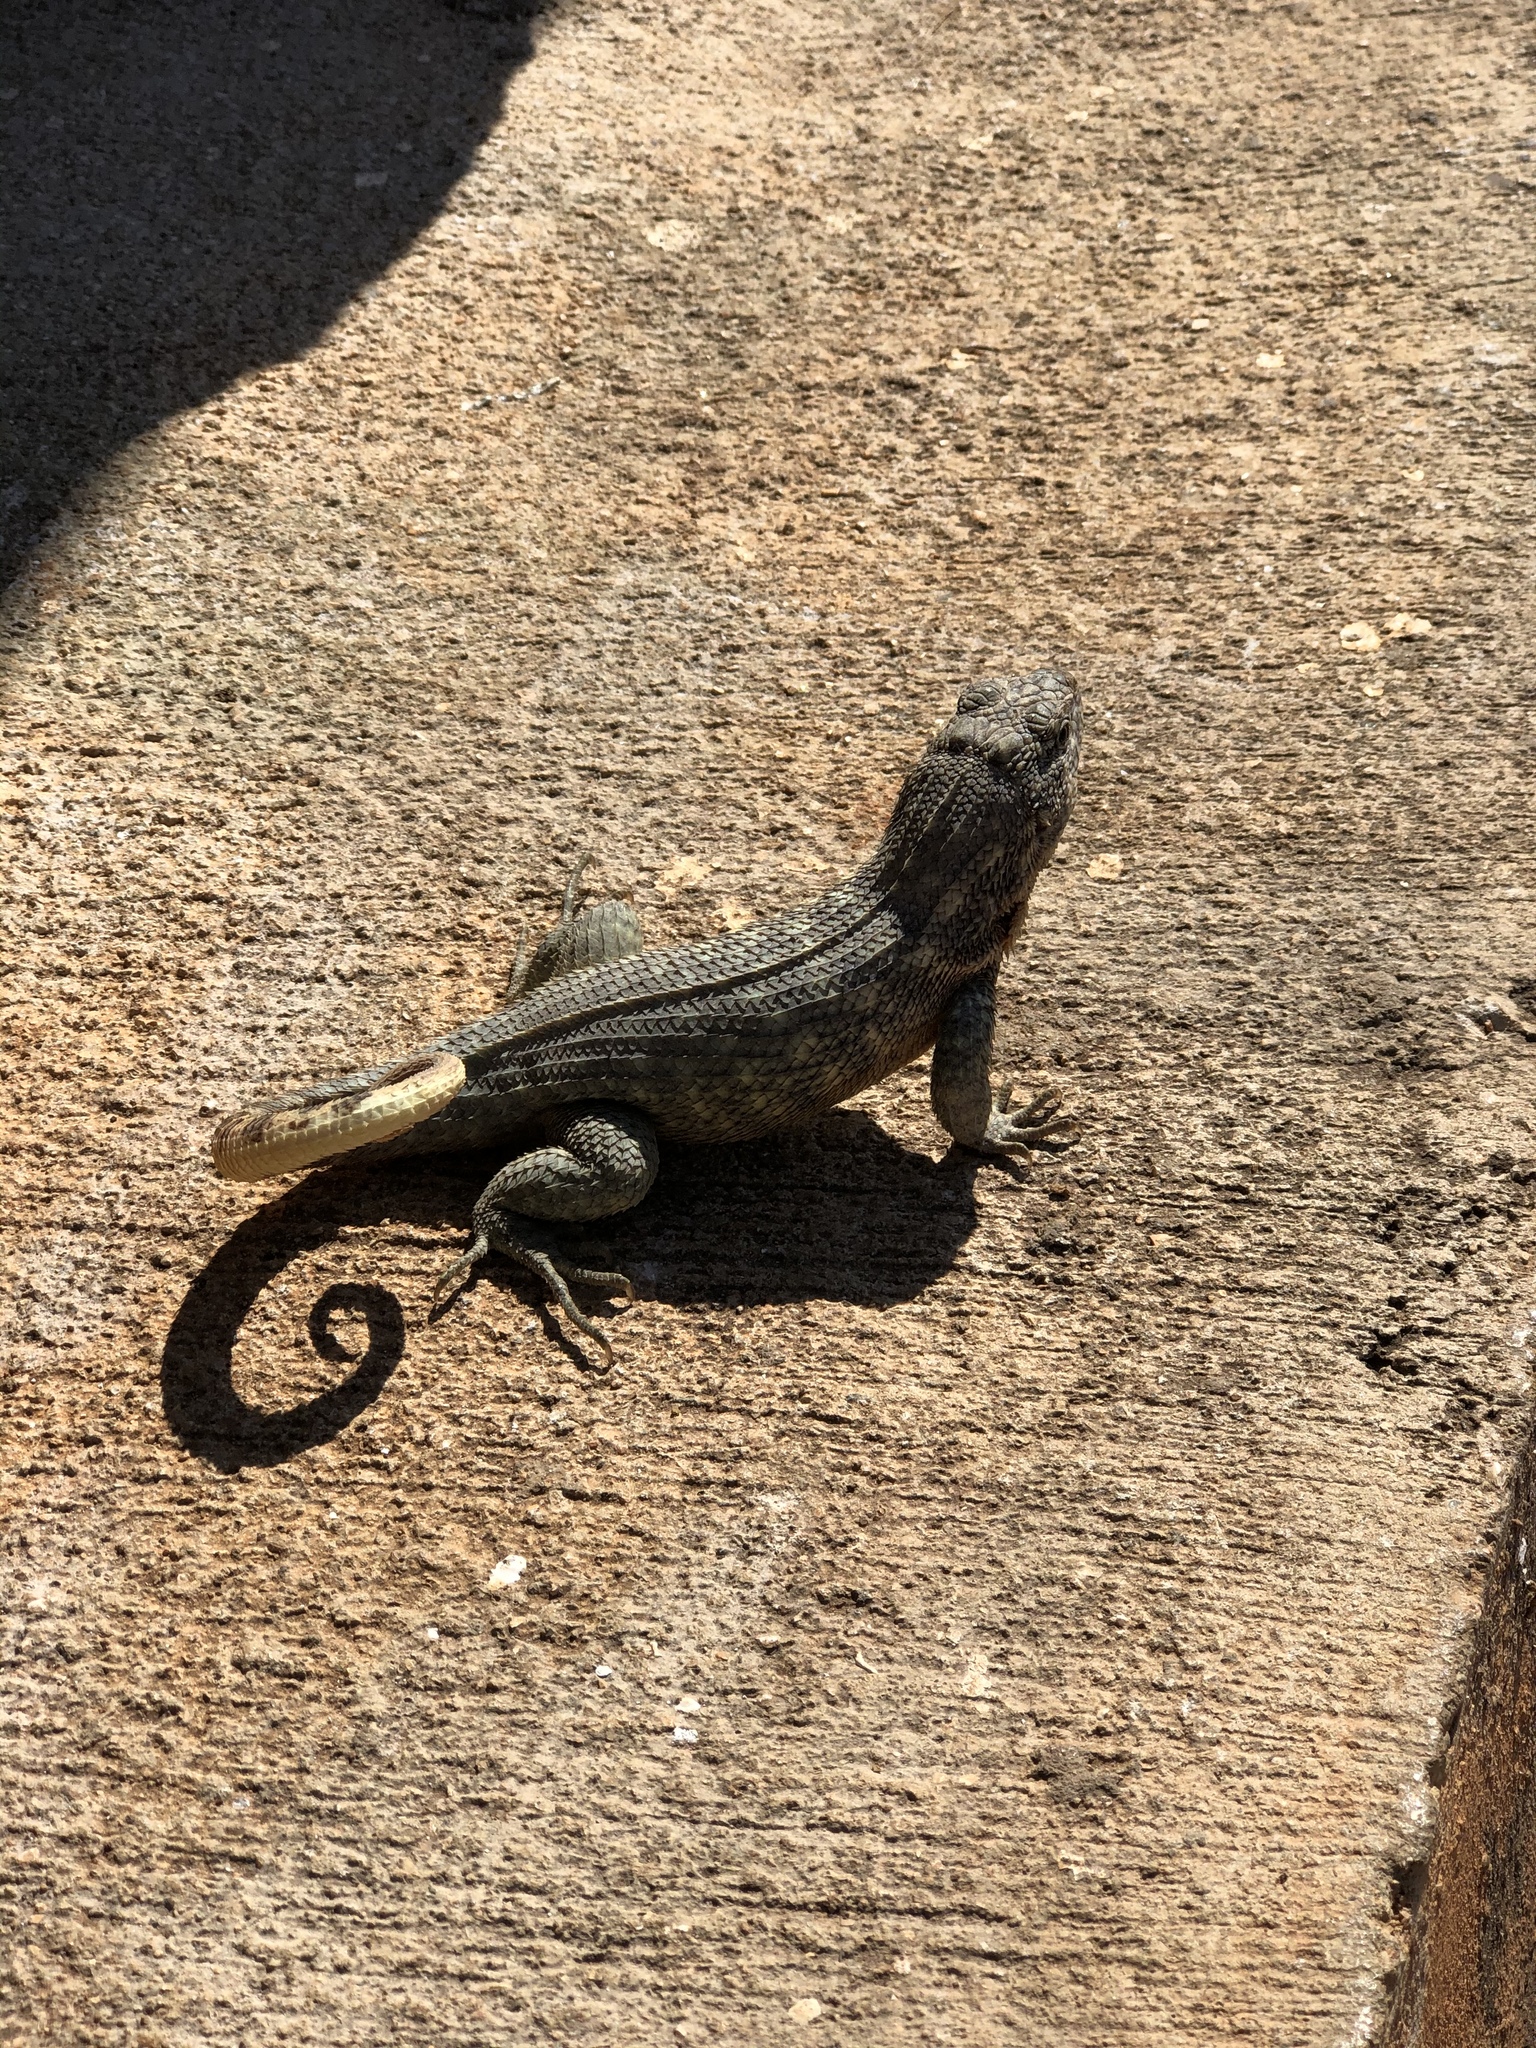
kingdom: Animalia
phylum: Chordata
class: Squamata
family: Leiocephalidae
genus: Leiocephalus
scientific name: Leiocephalus carinatus
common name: Northern curly-tailed lizard
